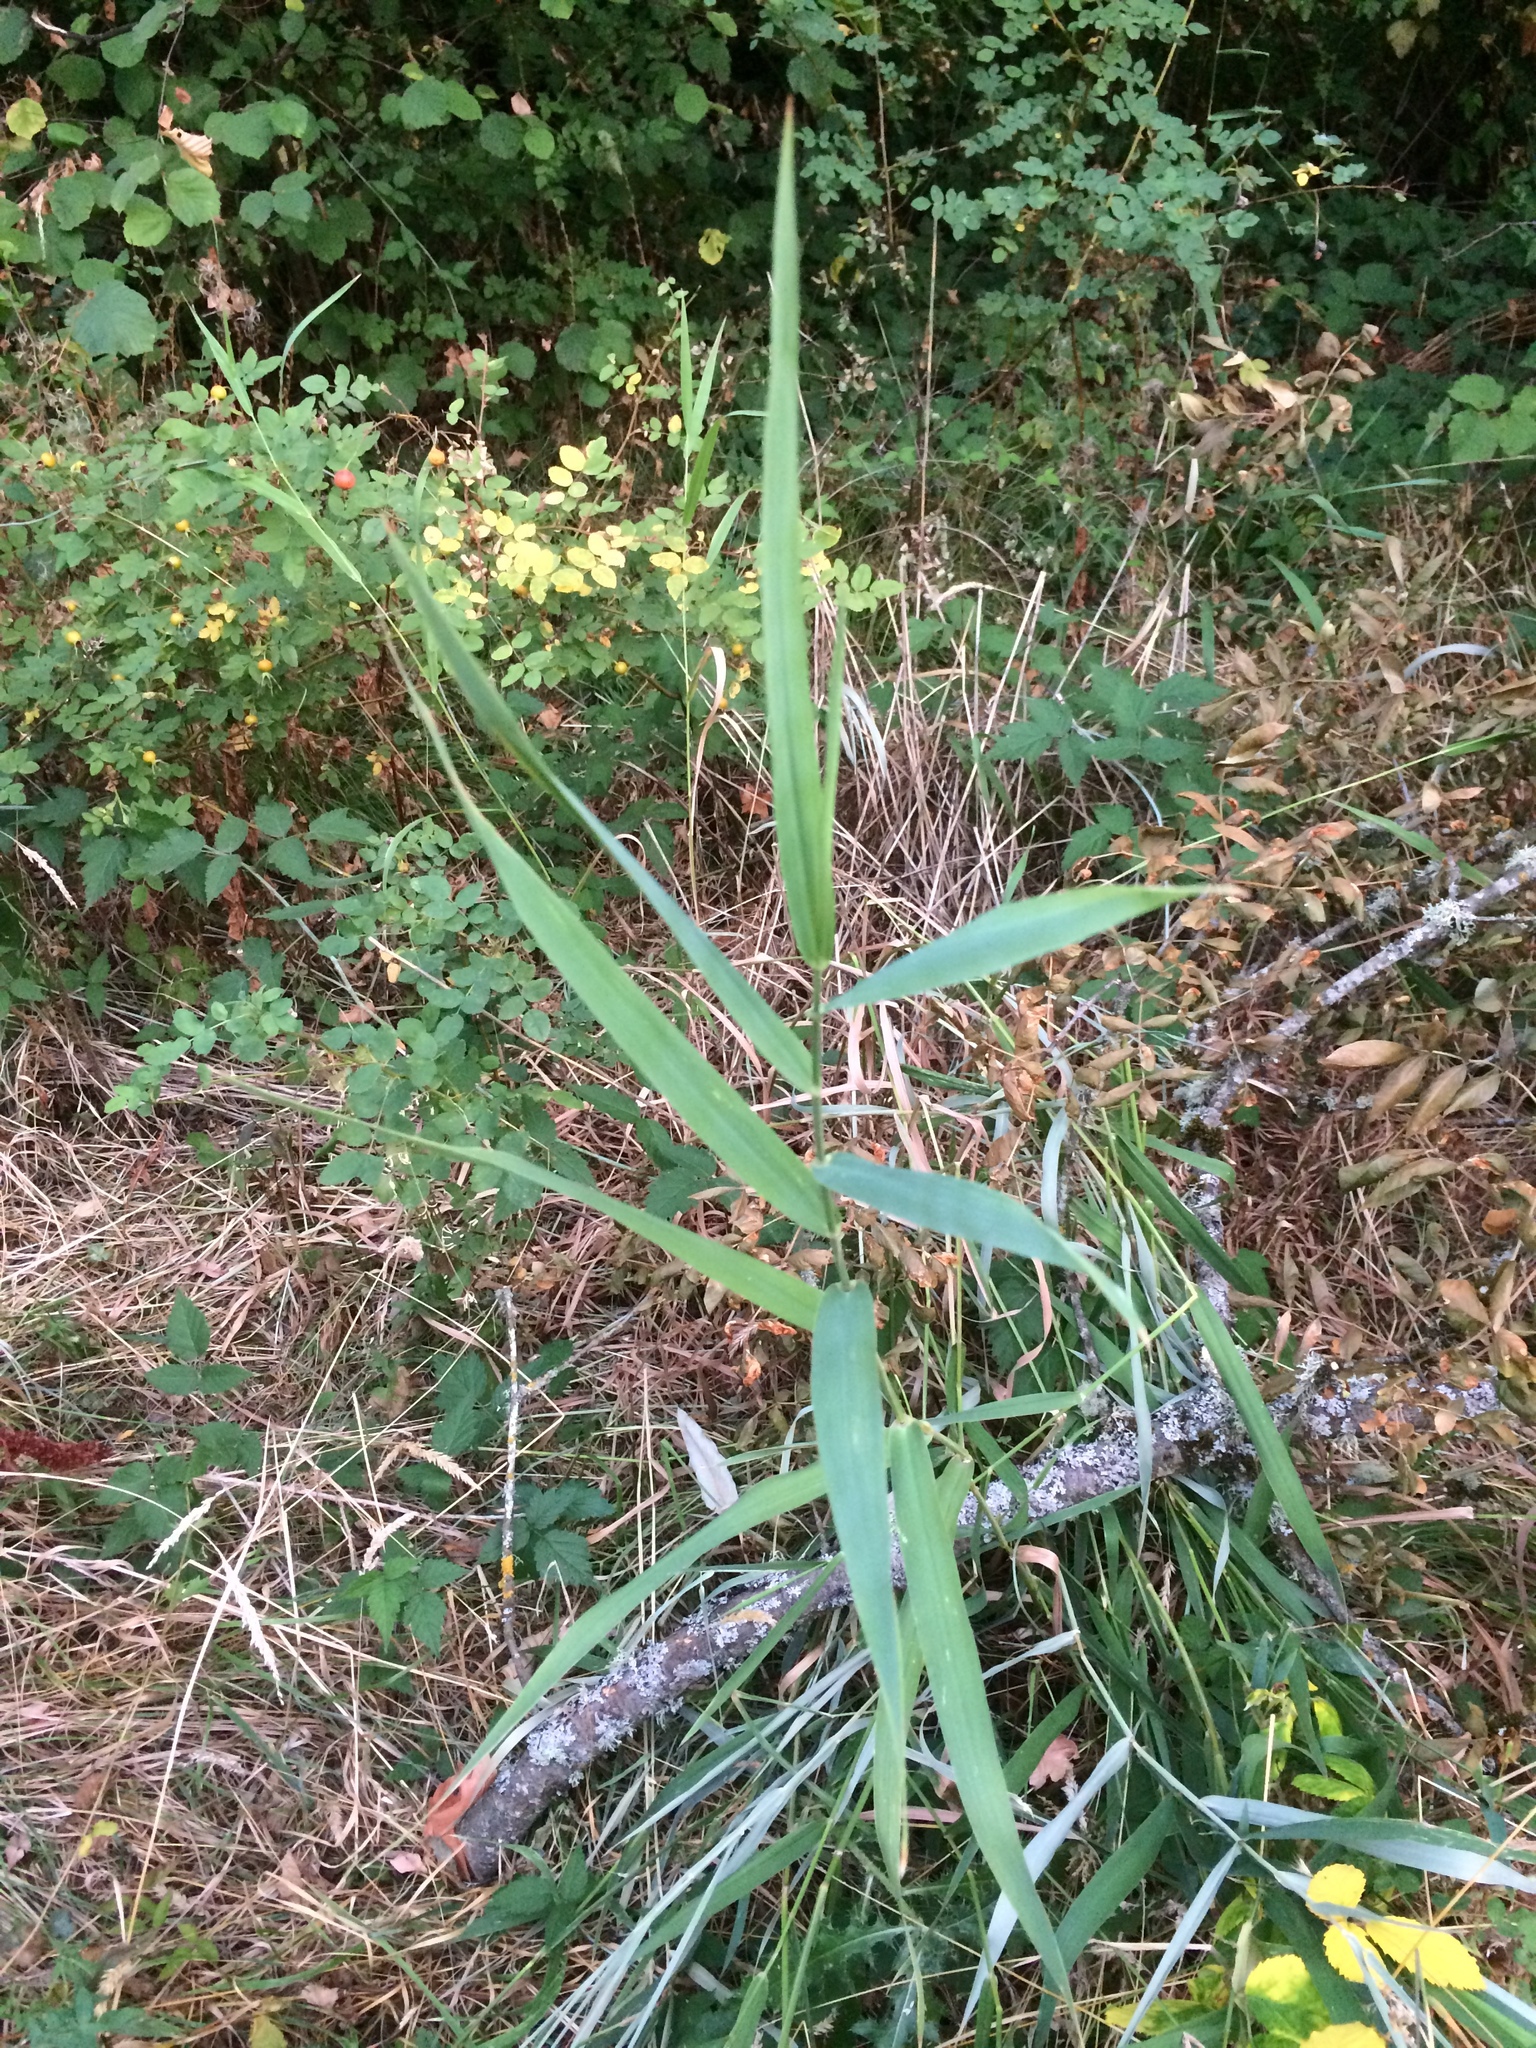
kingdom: Plantae
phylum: Tracheophyta
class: Liliopsida
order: Poales
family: Poaceae
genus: Phalaris
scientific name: Phalaris arundinacea
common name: Reed canary-grass
